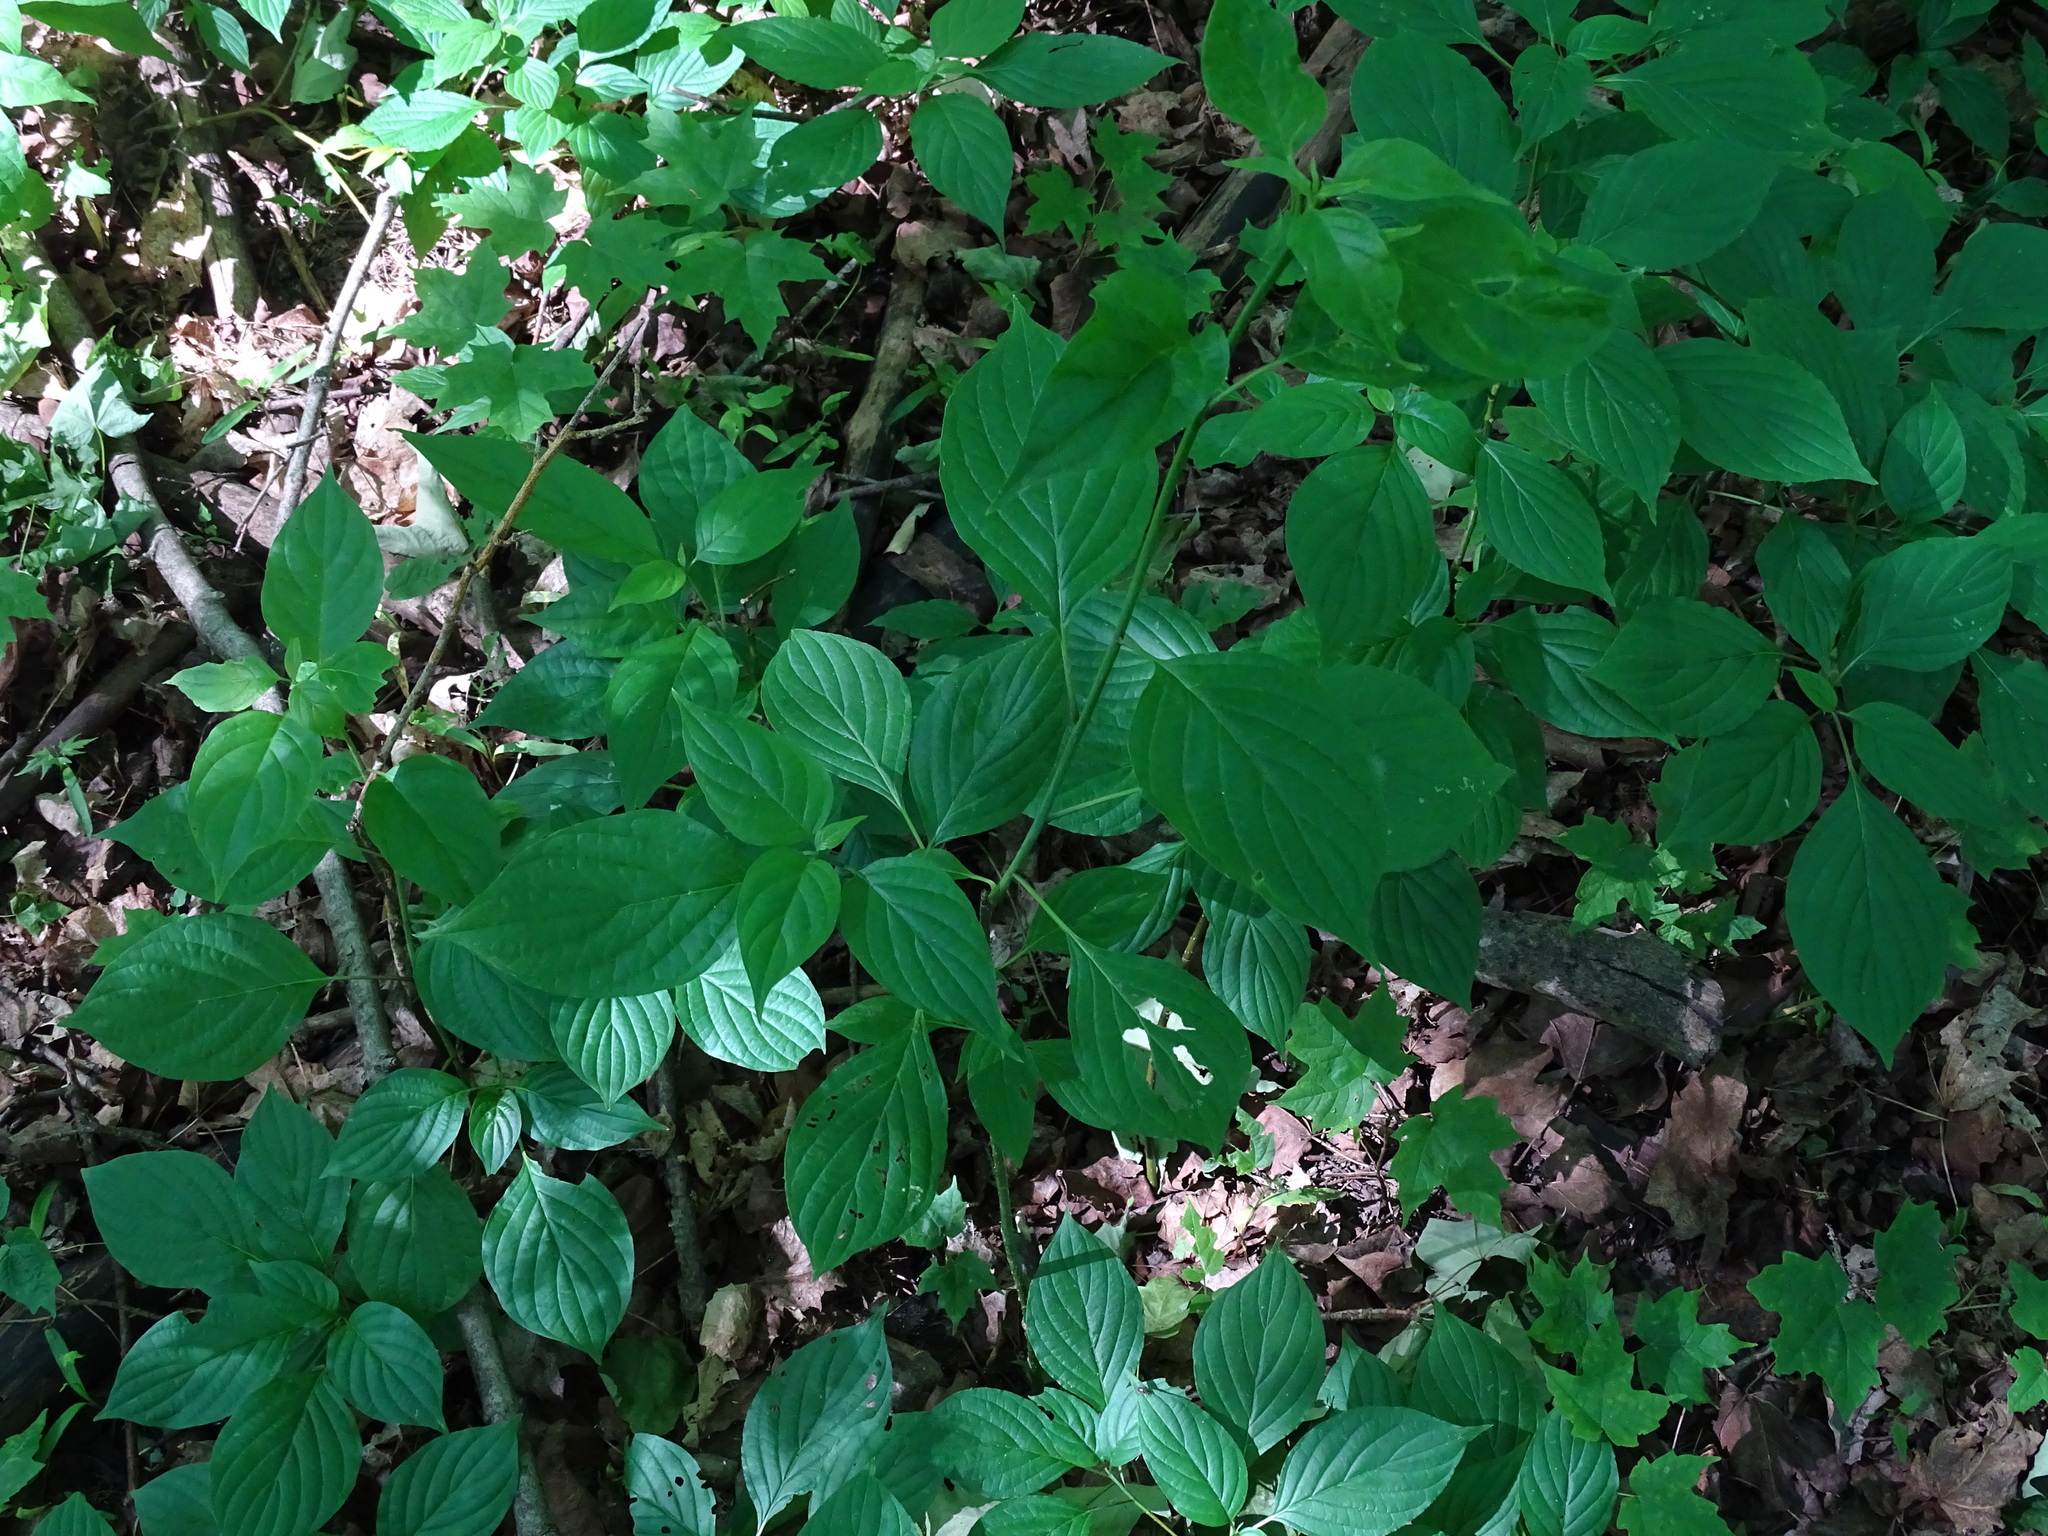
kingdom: Plantae
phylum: Tracheophyta
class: Magnoliopsida
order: Cornales
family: Cornaceae
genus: Cornus
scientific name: Cornus alternifolia
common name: Pagoda dogwood
